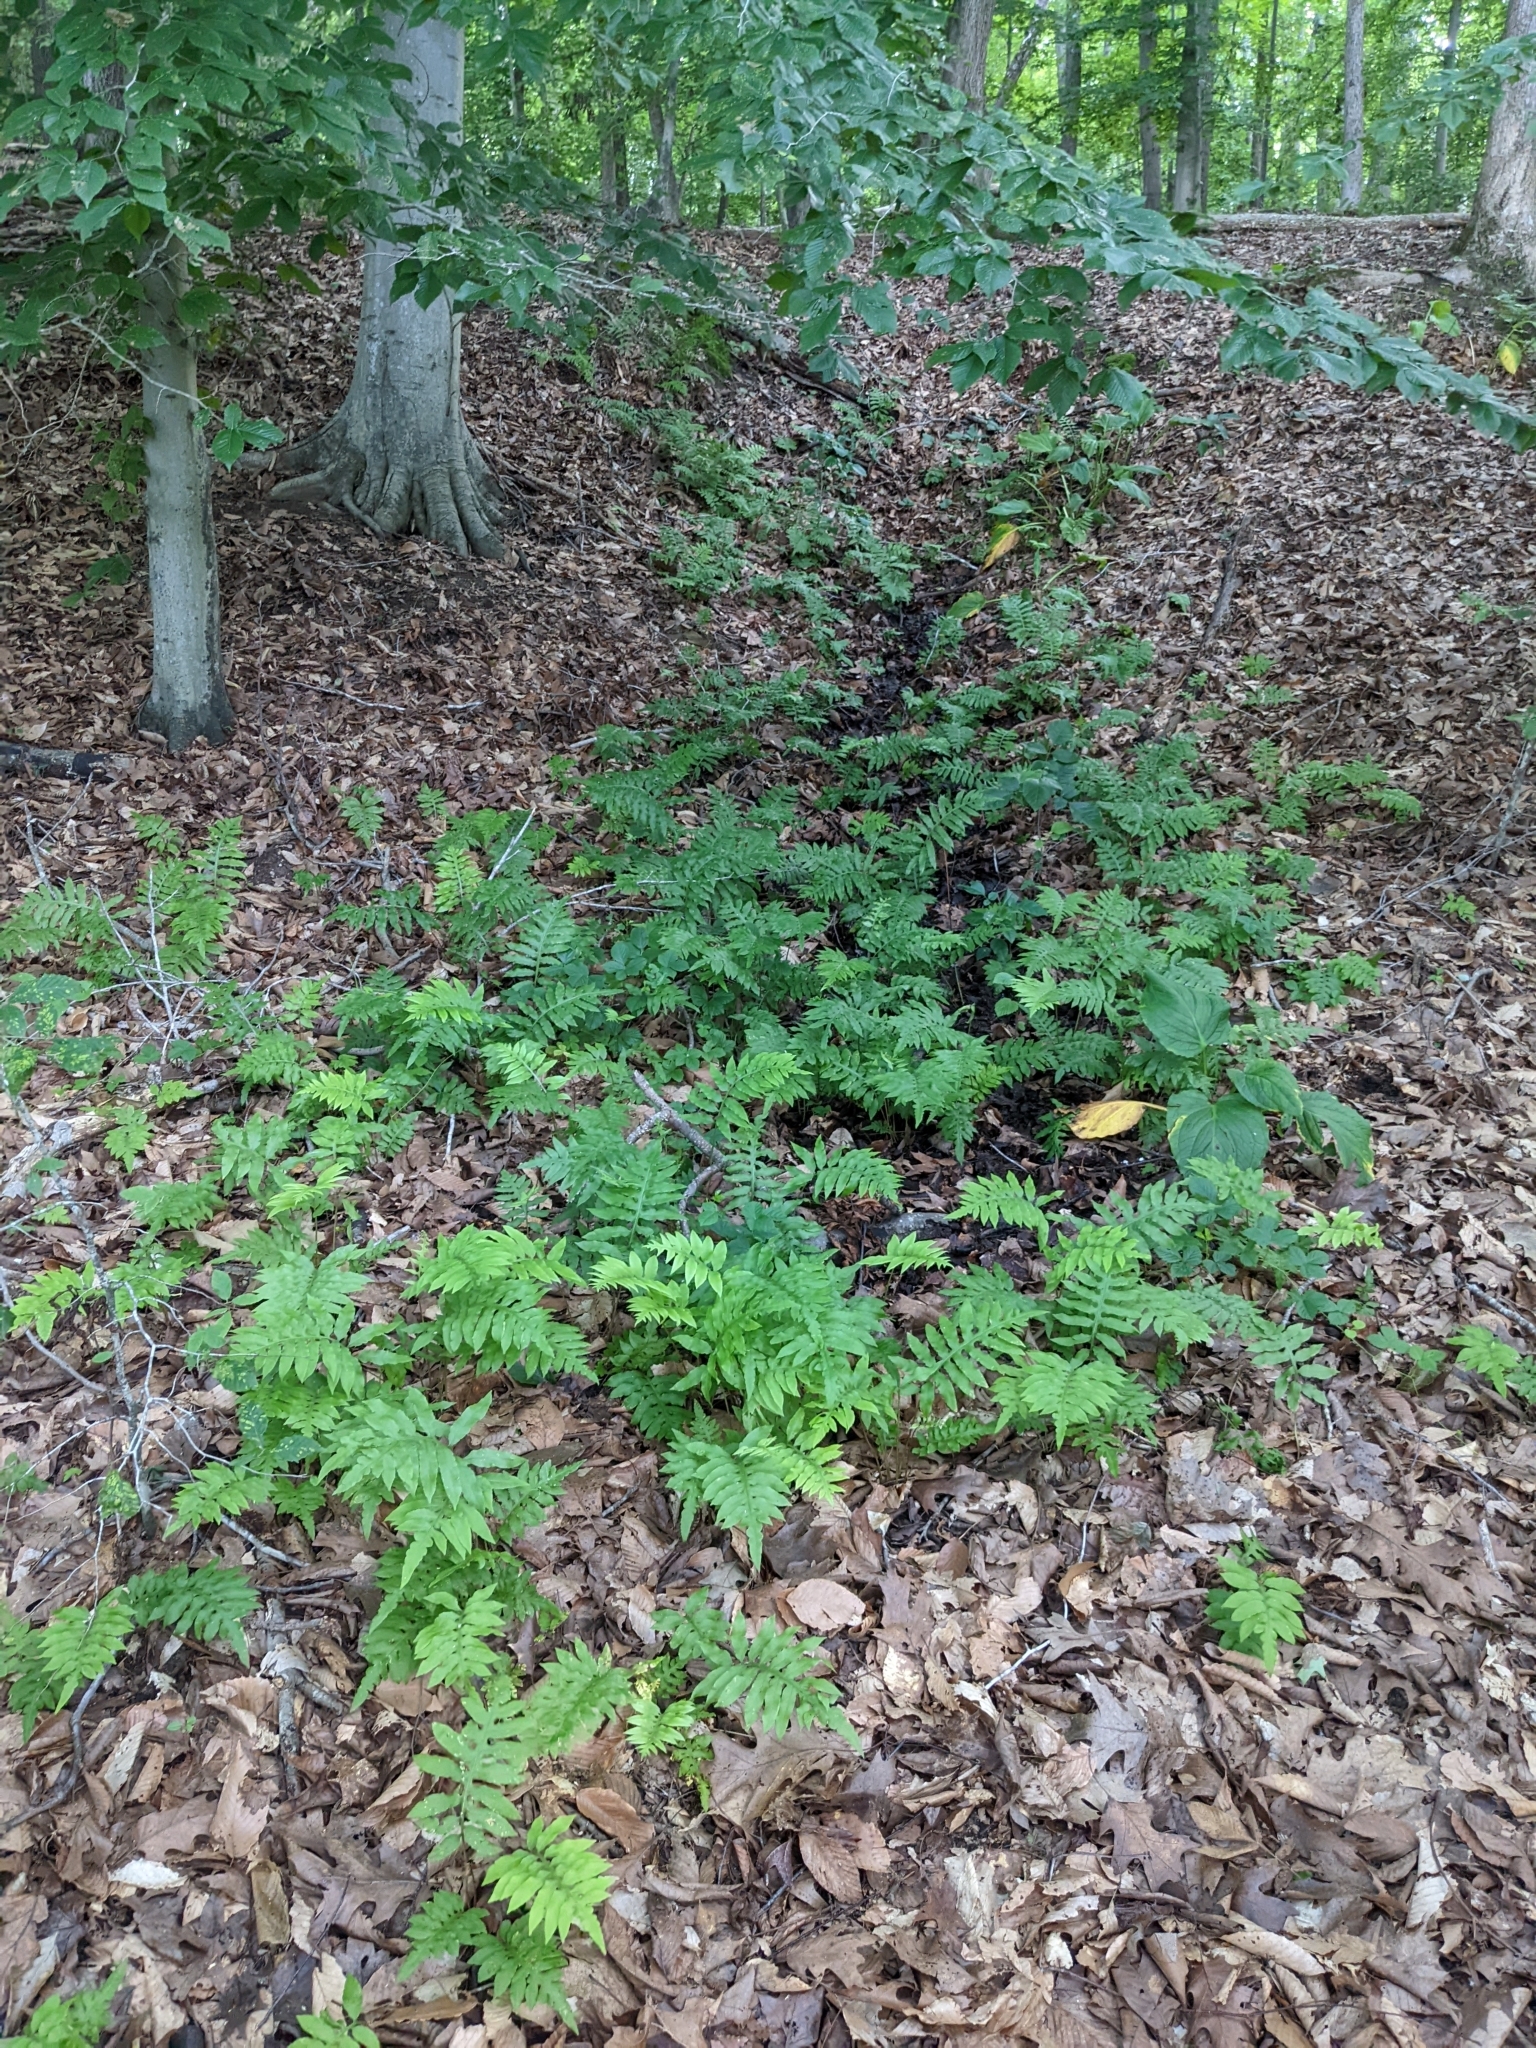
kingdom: Plantae
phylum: Tracheophyta
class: Polypodiopsida
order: Polypodiales
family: Blechnaceae
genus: Lorinseria
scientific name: Lorinseria areolata
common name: Dwarf chain fern
